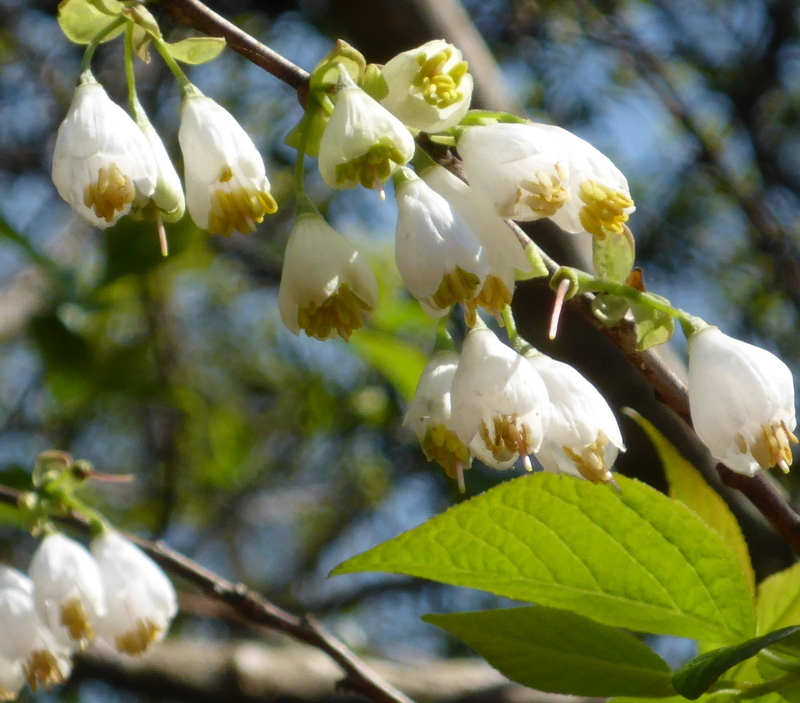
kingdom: Plantae
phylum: Tracheophyta
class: Magnoliopsida
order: Ericales
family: Styracaceae
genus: Halesia
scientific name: Halesia carolina
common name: Carolina silverbell
